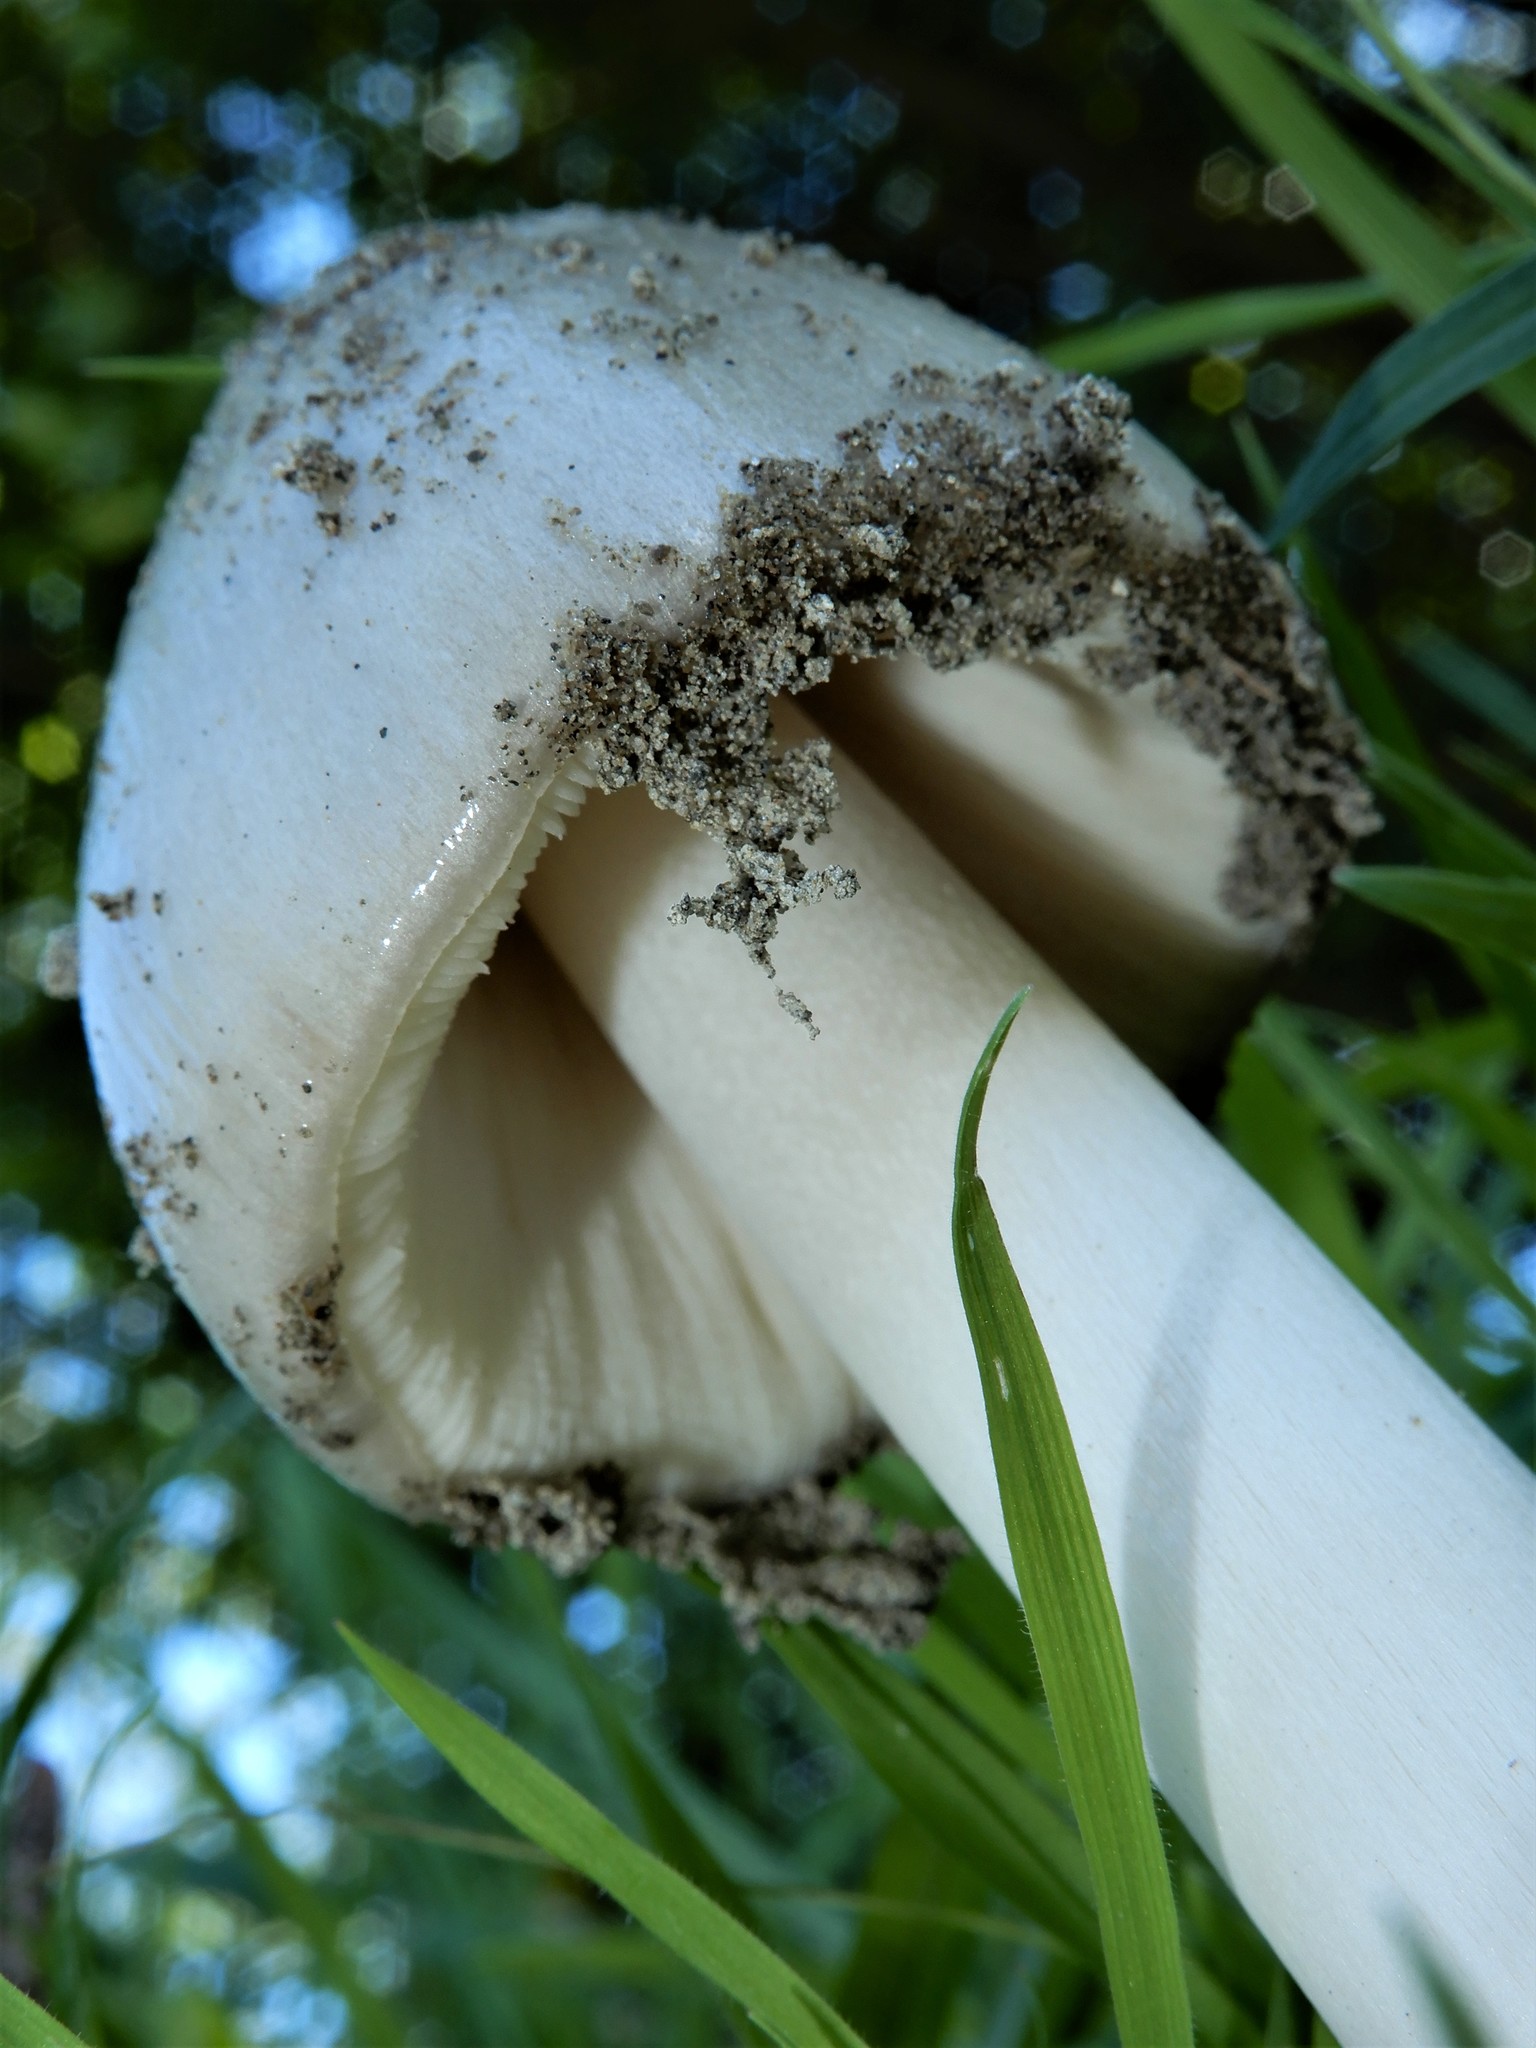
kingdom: Fungi
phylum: Basidiomycota
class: Agaricomycetes
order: Agaricales
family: Pluteaceae
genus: Volvopluteus
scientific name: Volvopluteus gloiocephalus
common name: Stubble rosegill
